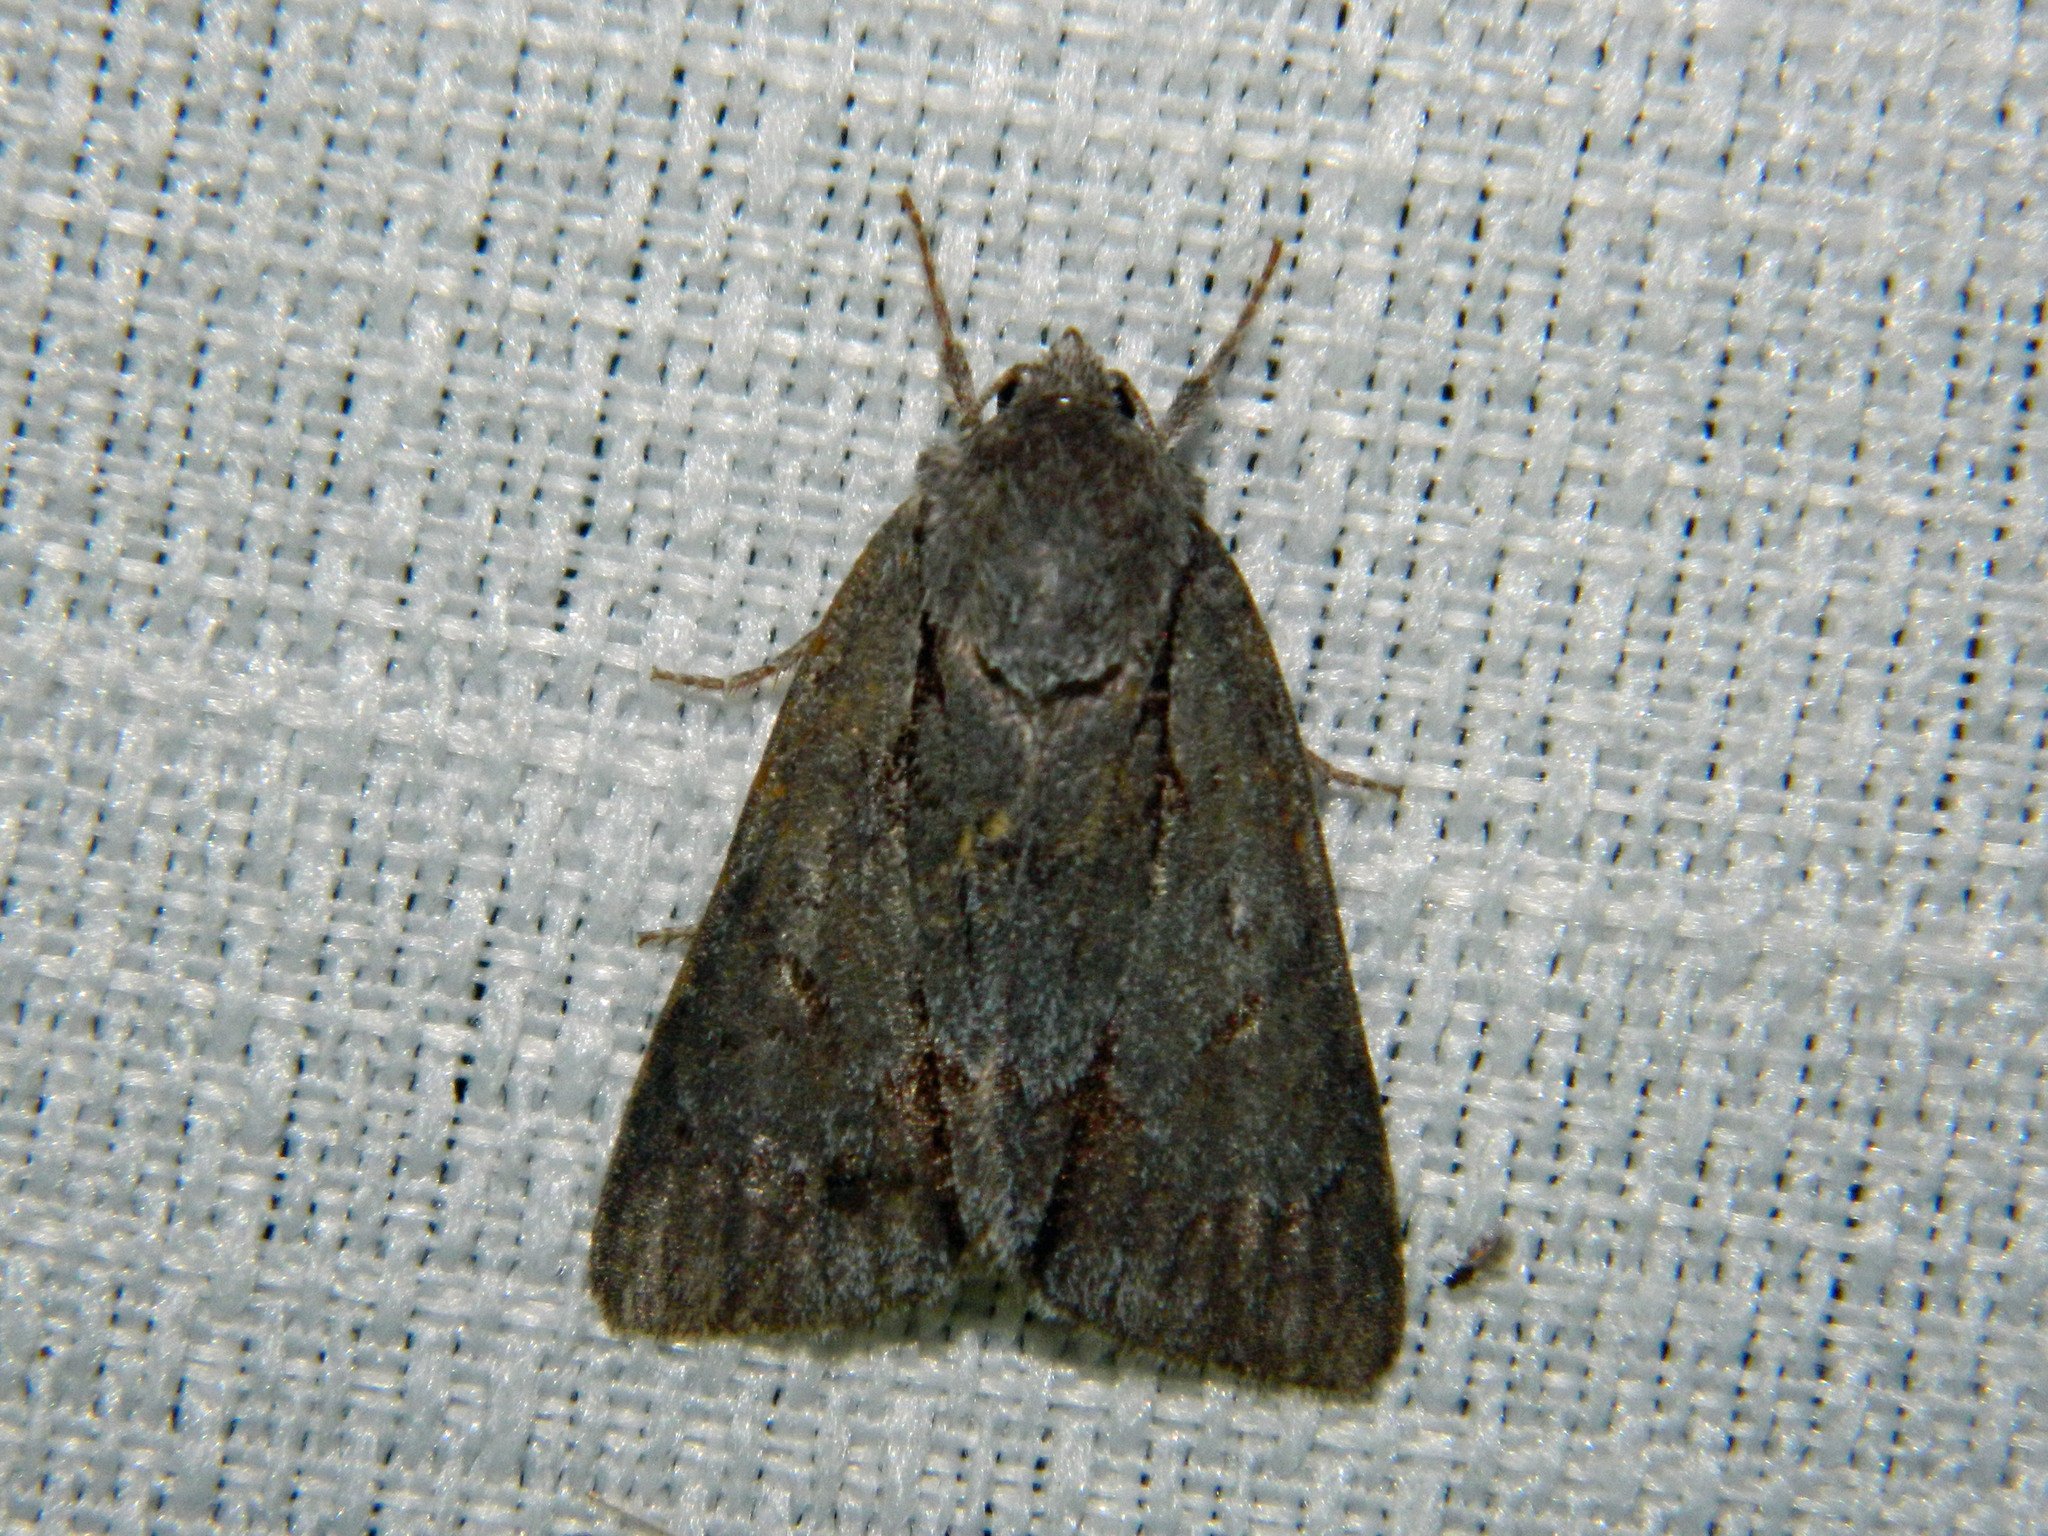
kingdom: Animalia
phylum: Arthropoda
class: Insecta
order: Lepidoptera
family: Noctuidae
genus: Acronicta
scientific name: Acronicta tritona
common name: Triton dagger
